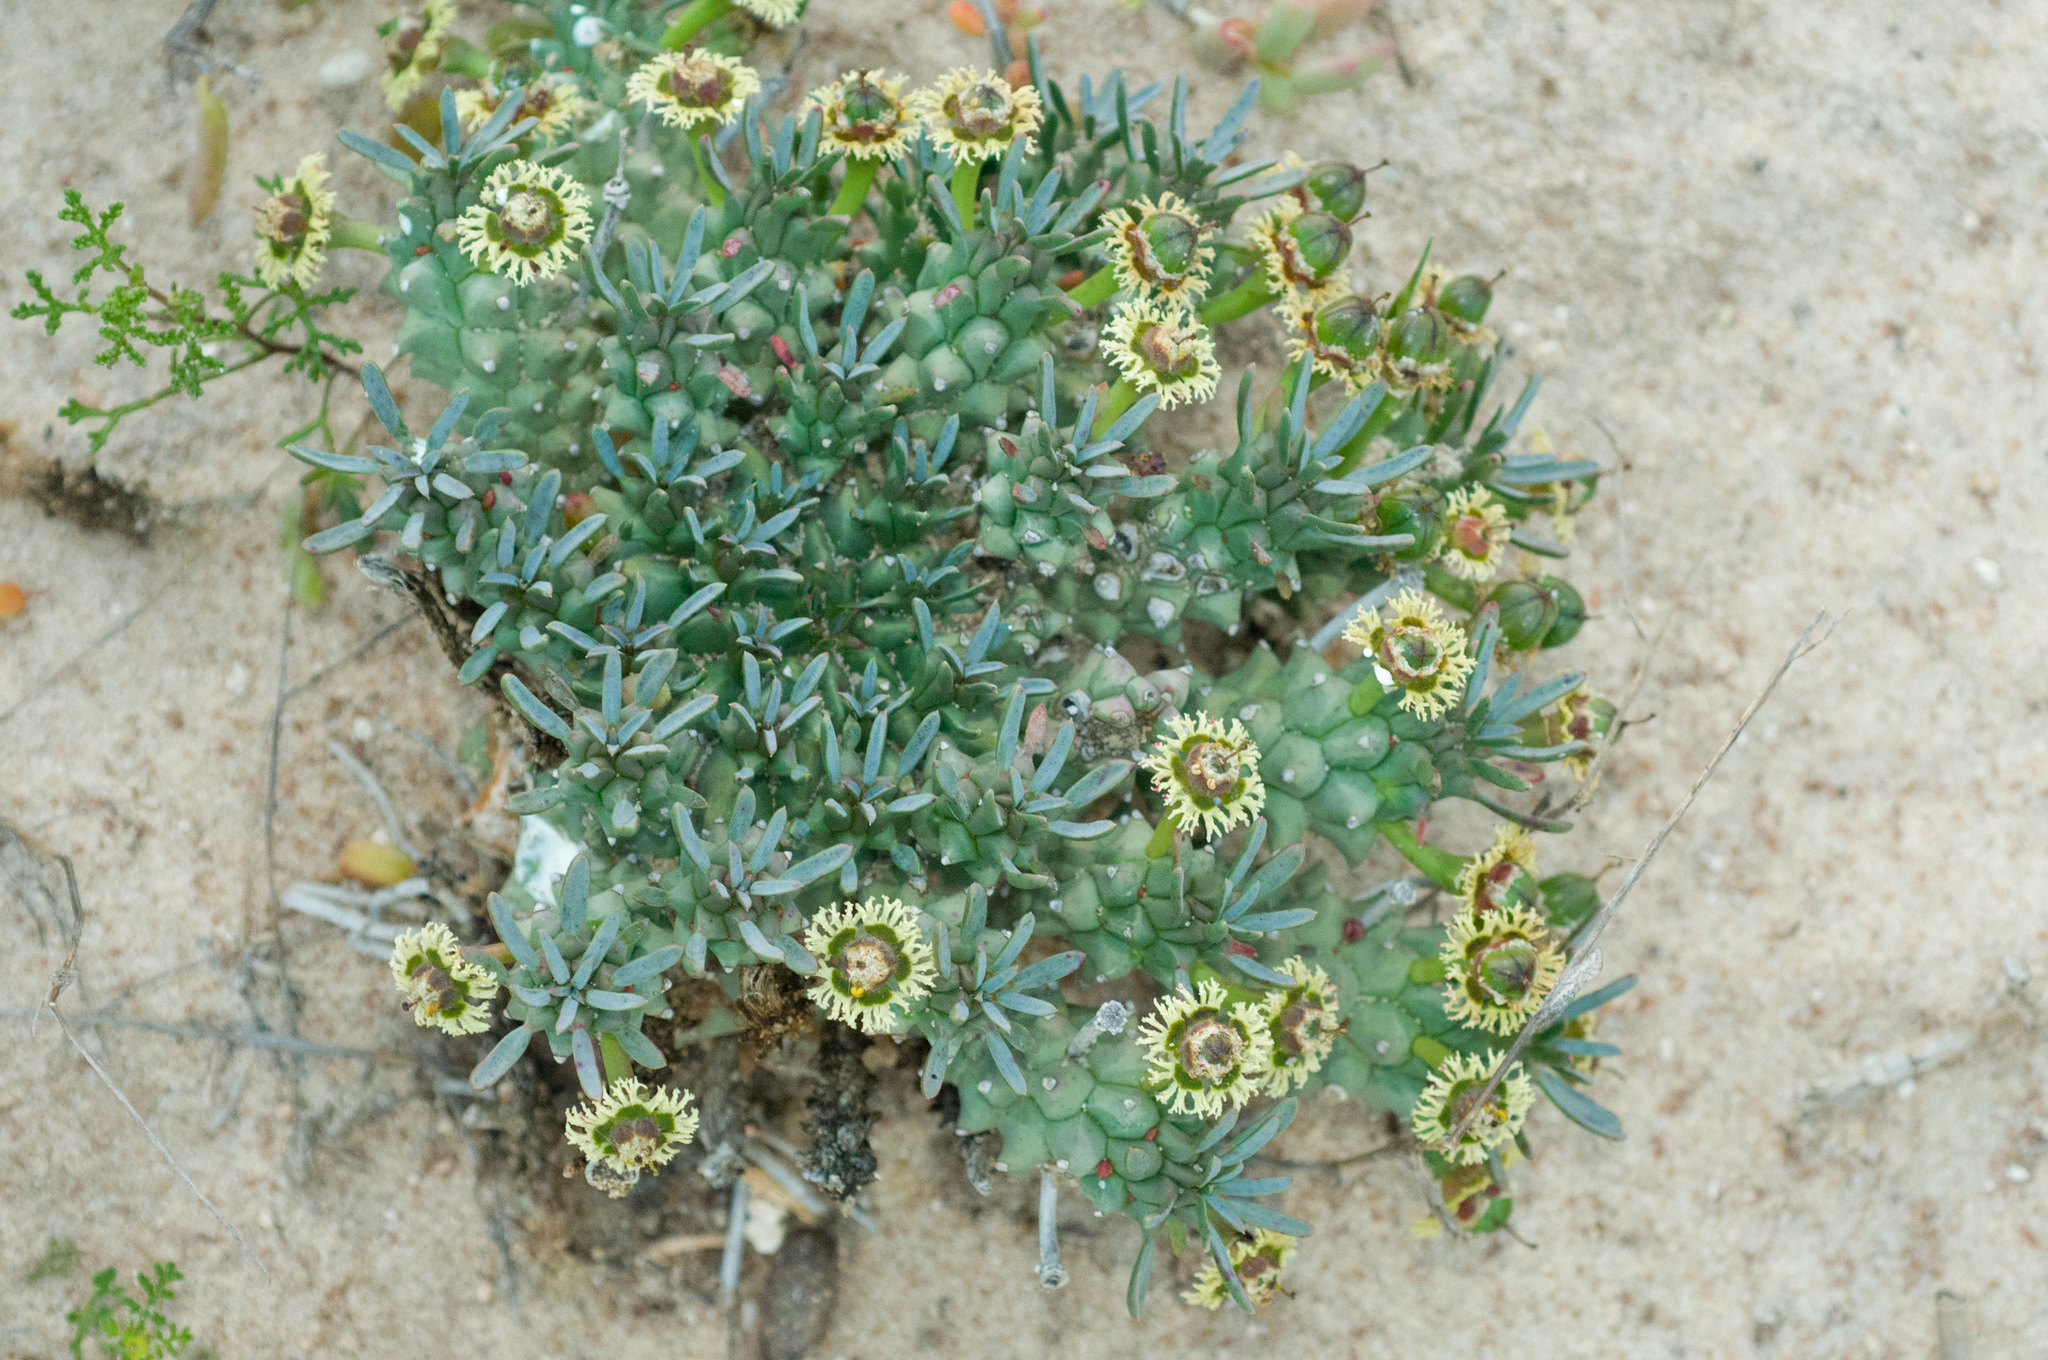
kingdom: Plantae
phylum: Tracheophyta
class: Magnoliopsida
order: Malpighiales
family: Euphorbiaceae
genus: Euphorbia
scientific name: Euphorbia caput-medusae
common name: Medusa's-head
